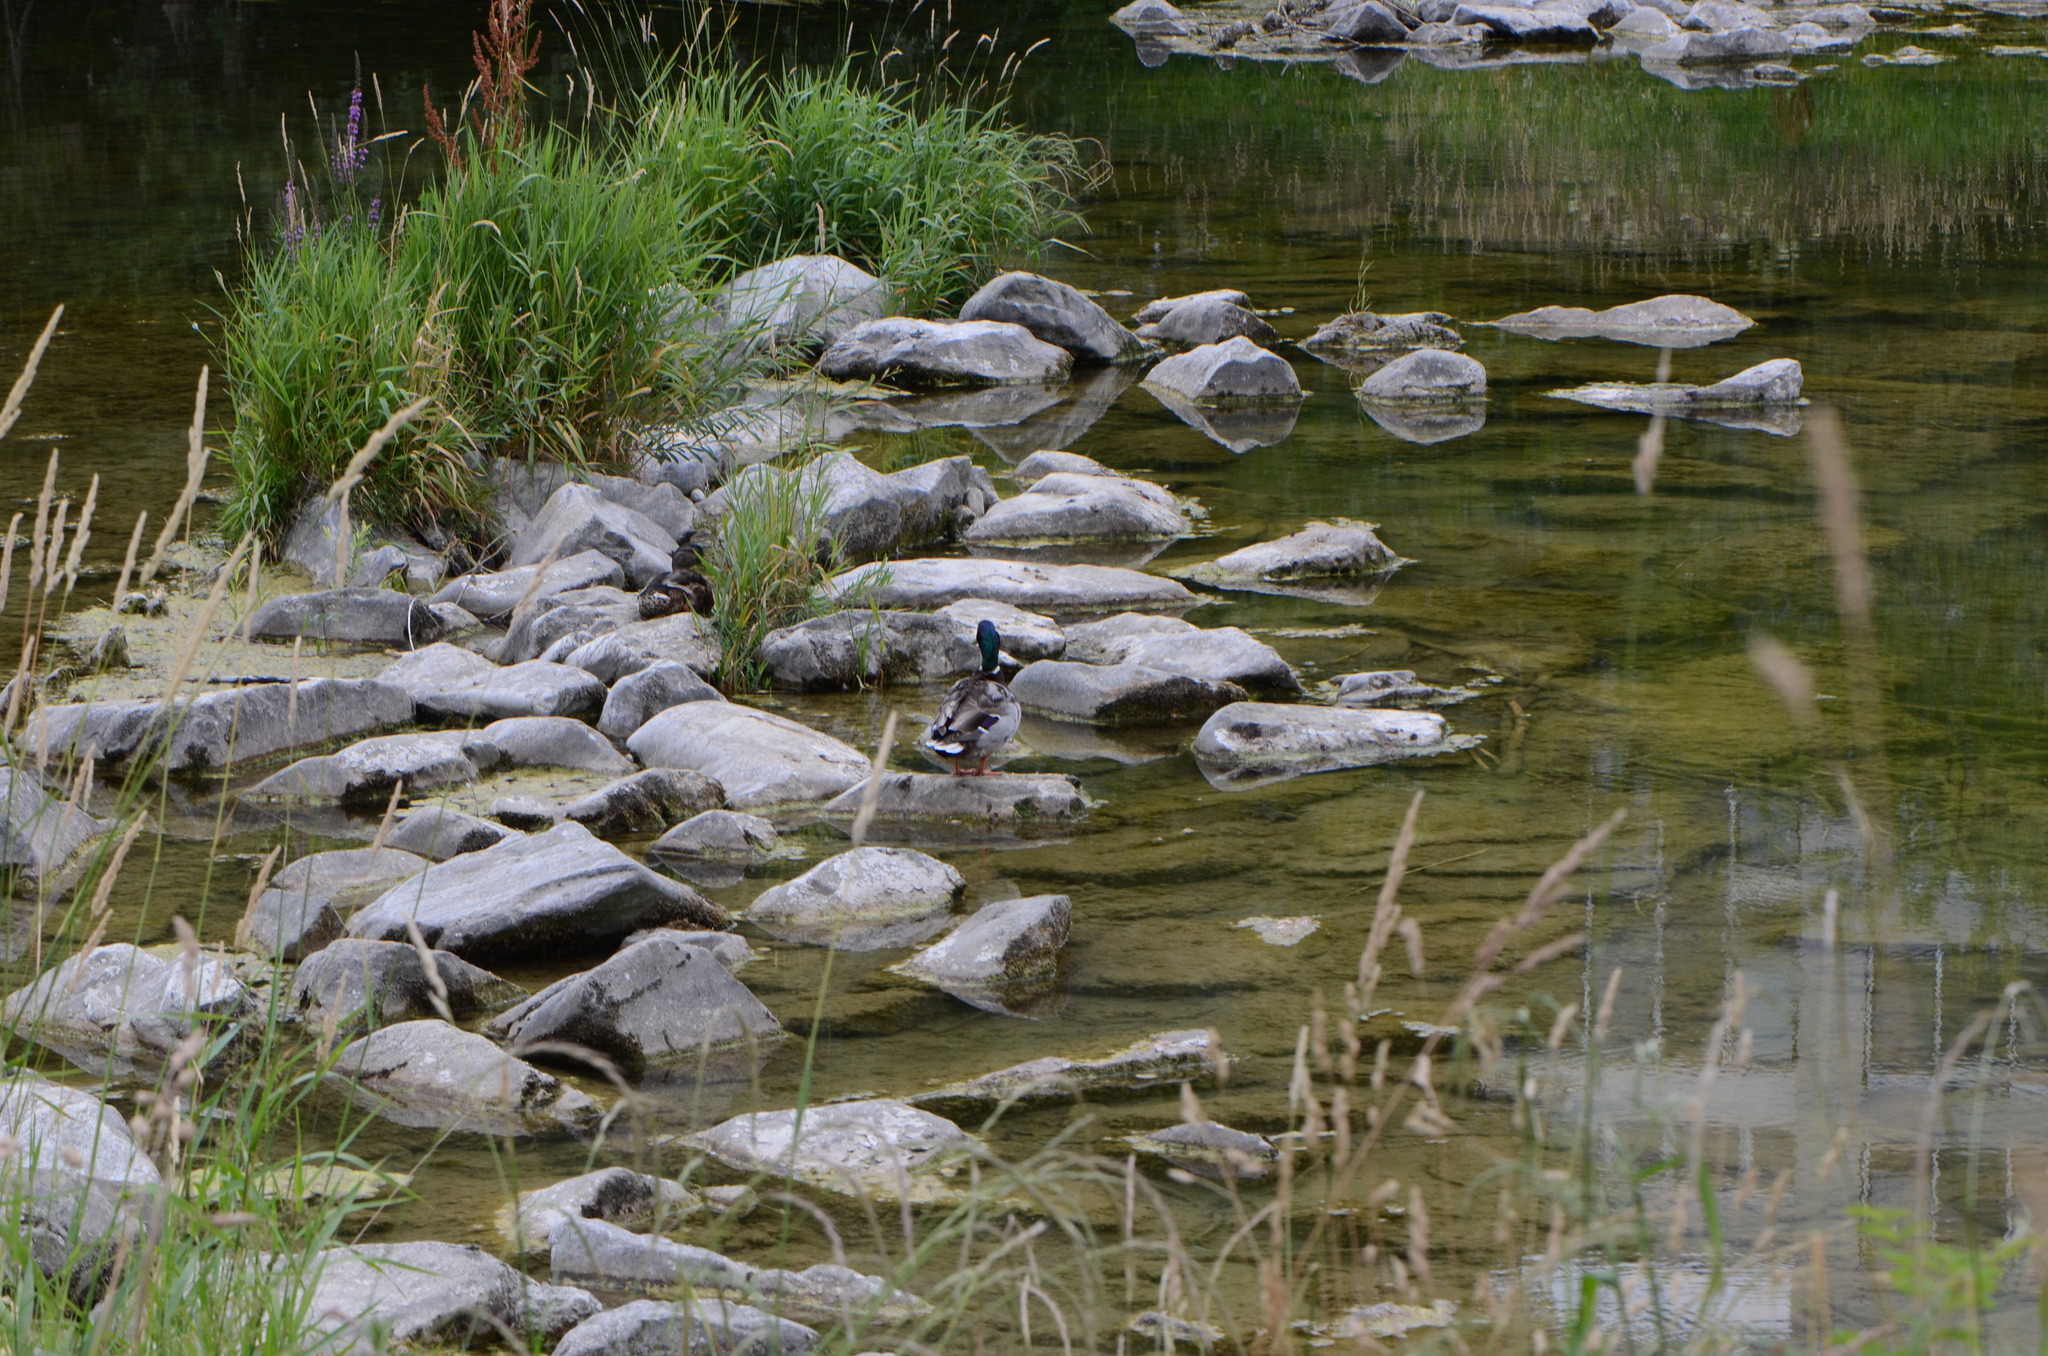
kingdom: Animalia
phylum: Chordata
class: Aves
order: Anseriformes
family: Anatidae
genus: Anas
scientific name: Anas platyrhynchos
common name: Mallard
